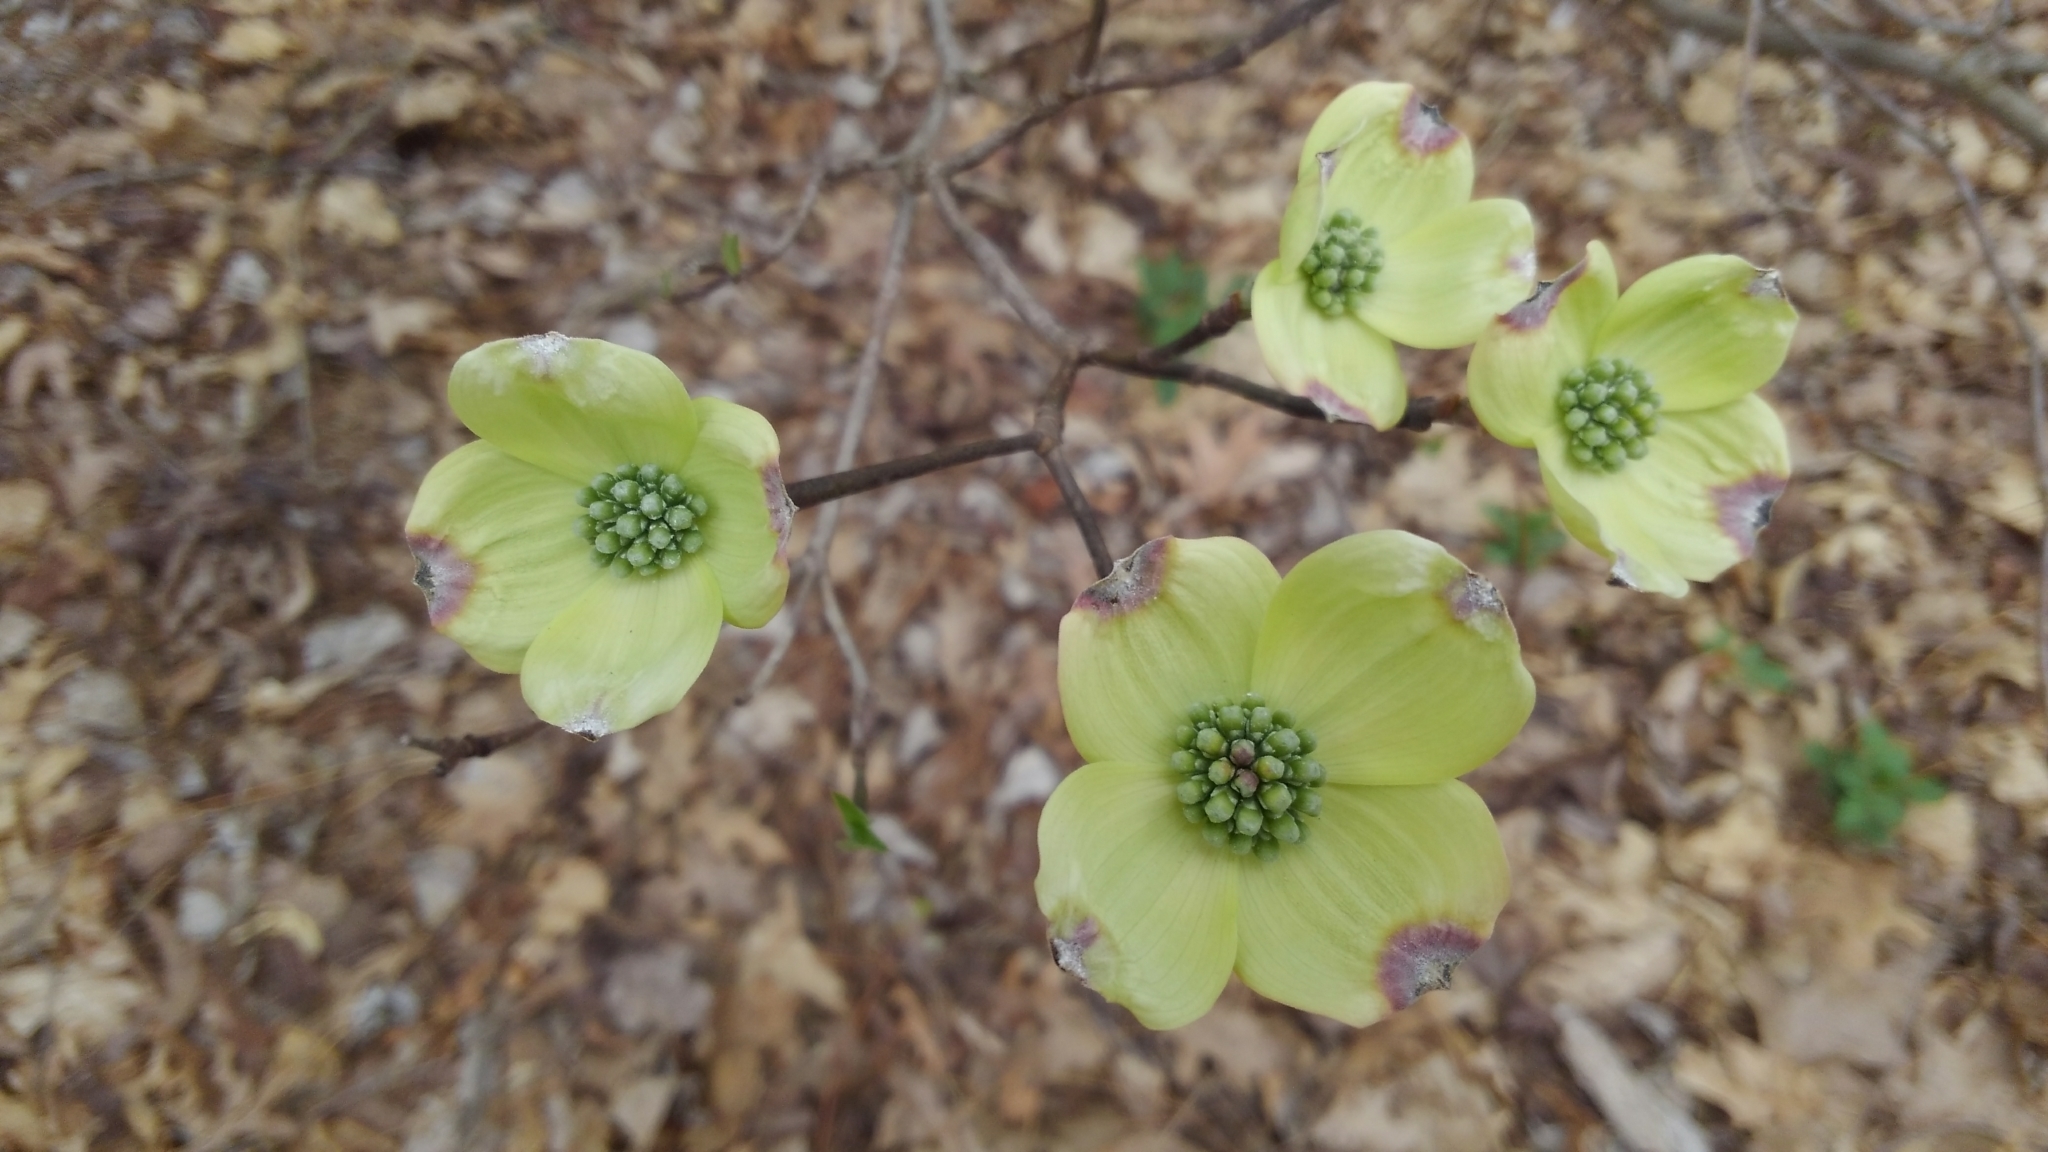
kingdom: Plantae
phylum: Tracheophyta
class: Magnoliopsida
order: Cornales
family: Cornaceae
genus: Cornus
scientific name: Cornus florida
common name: Flowering dogwood
